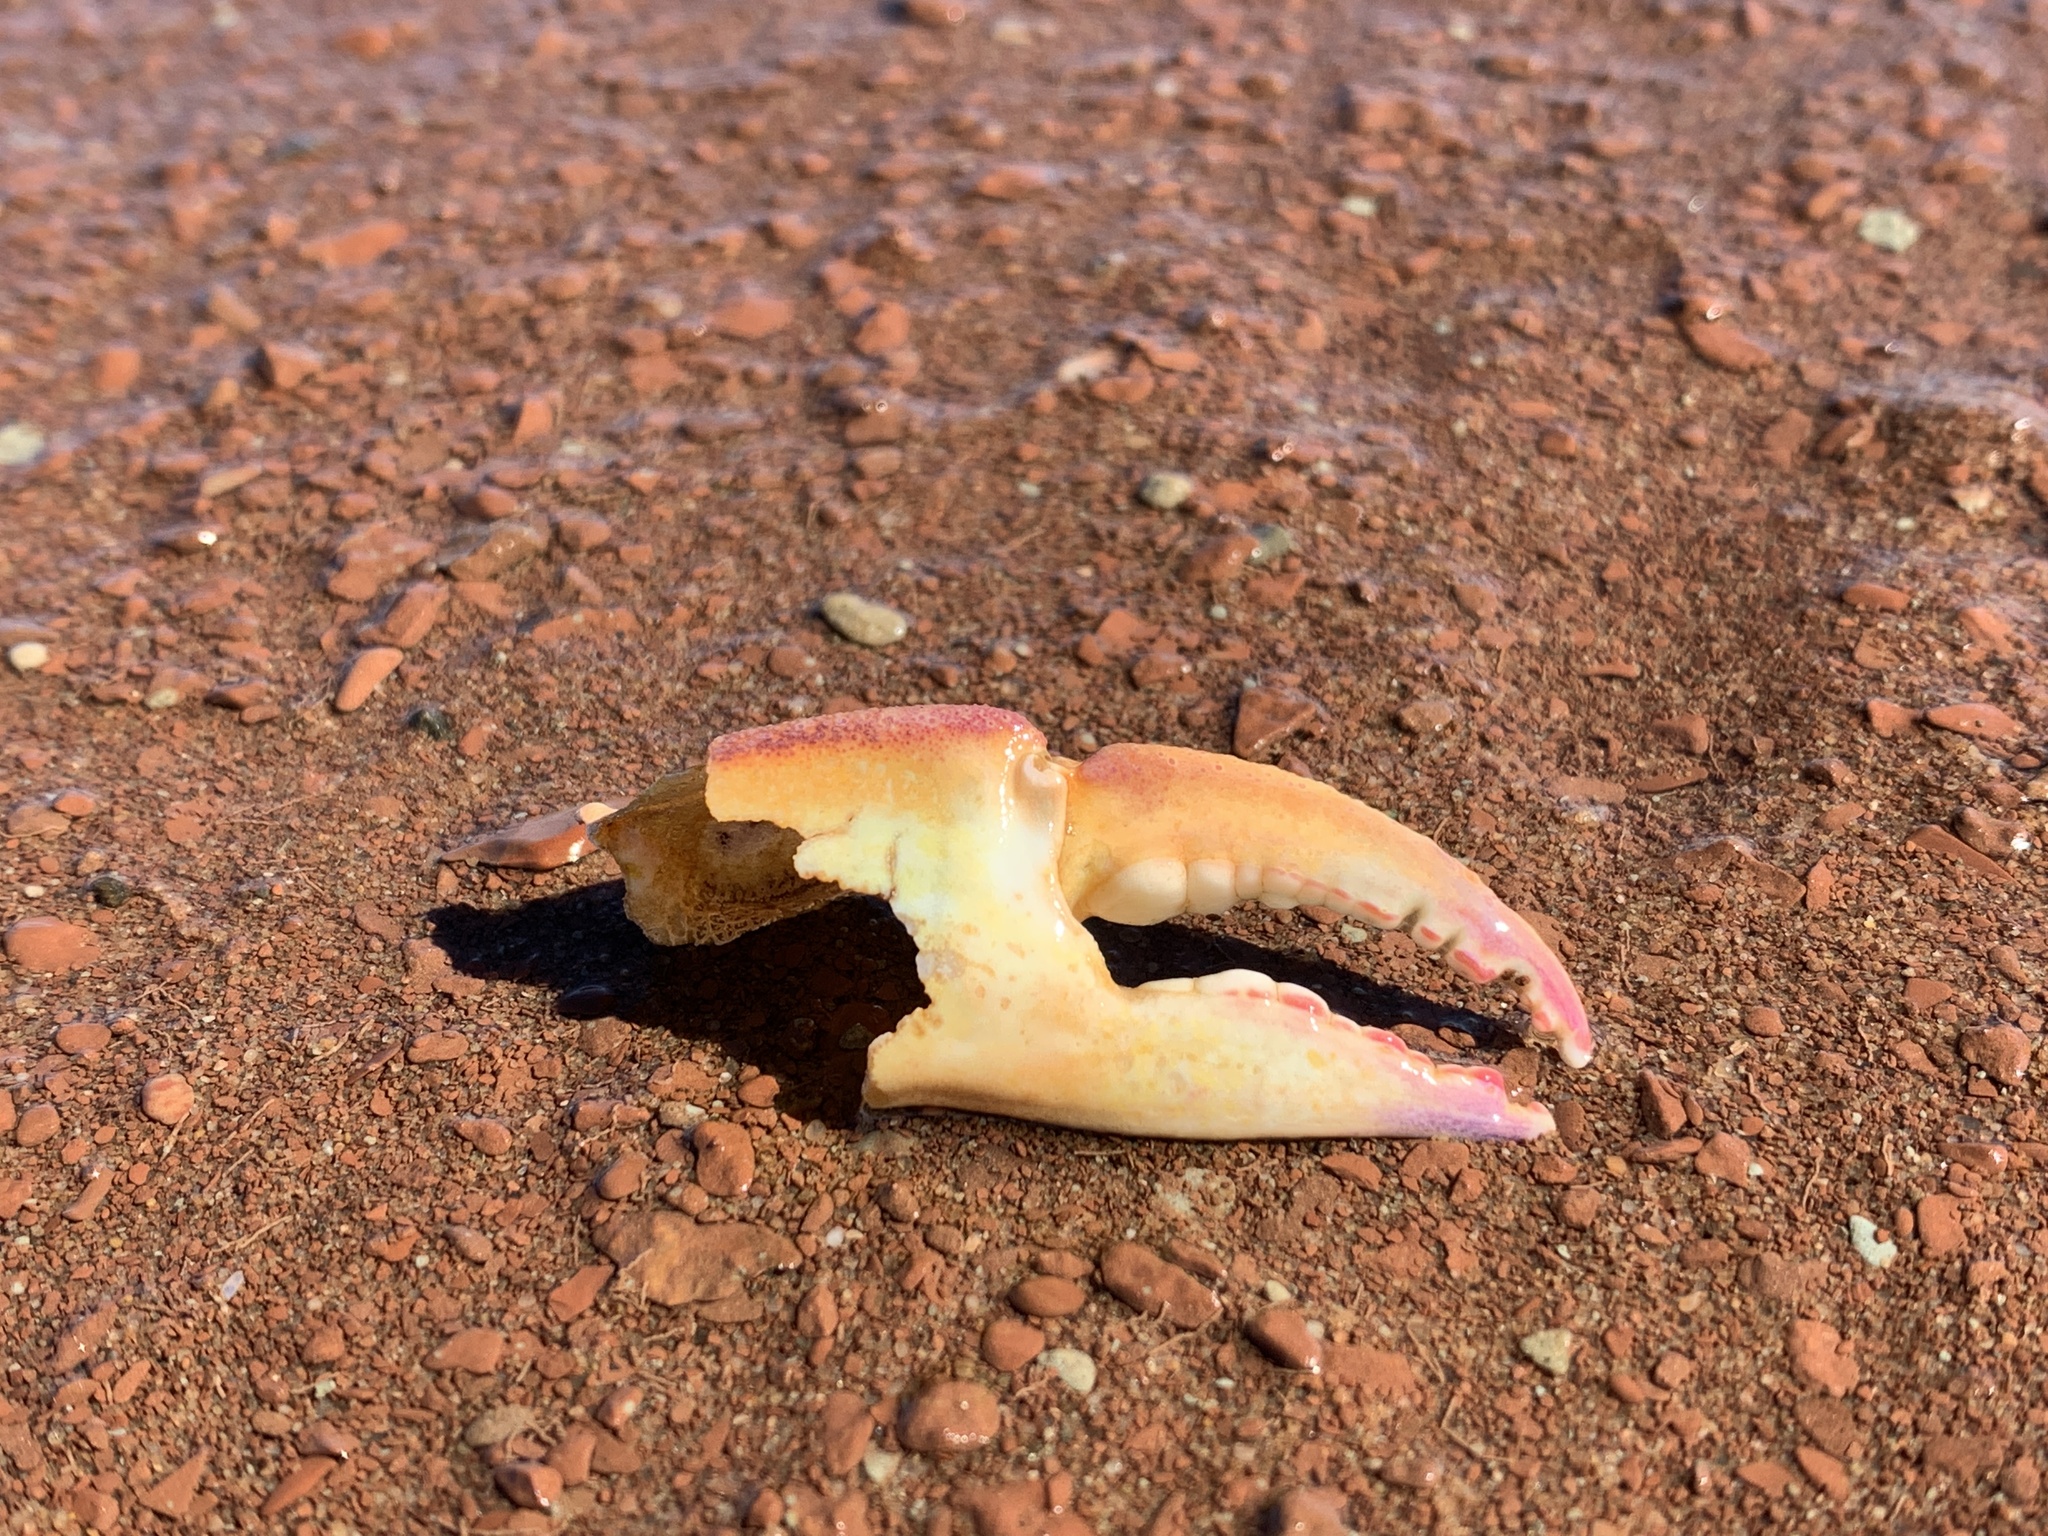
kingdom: Animalia
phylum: Arthropoda
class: Malacostraca
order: Decapoda
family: Ovalipidae
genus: Ovalipes
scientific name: Ovalipes ocellatus
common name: Lady crab
